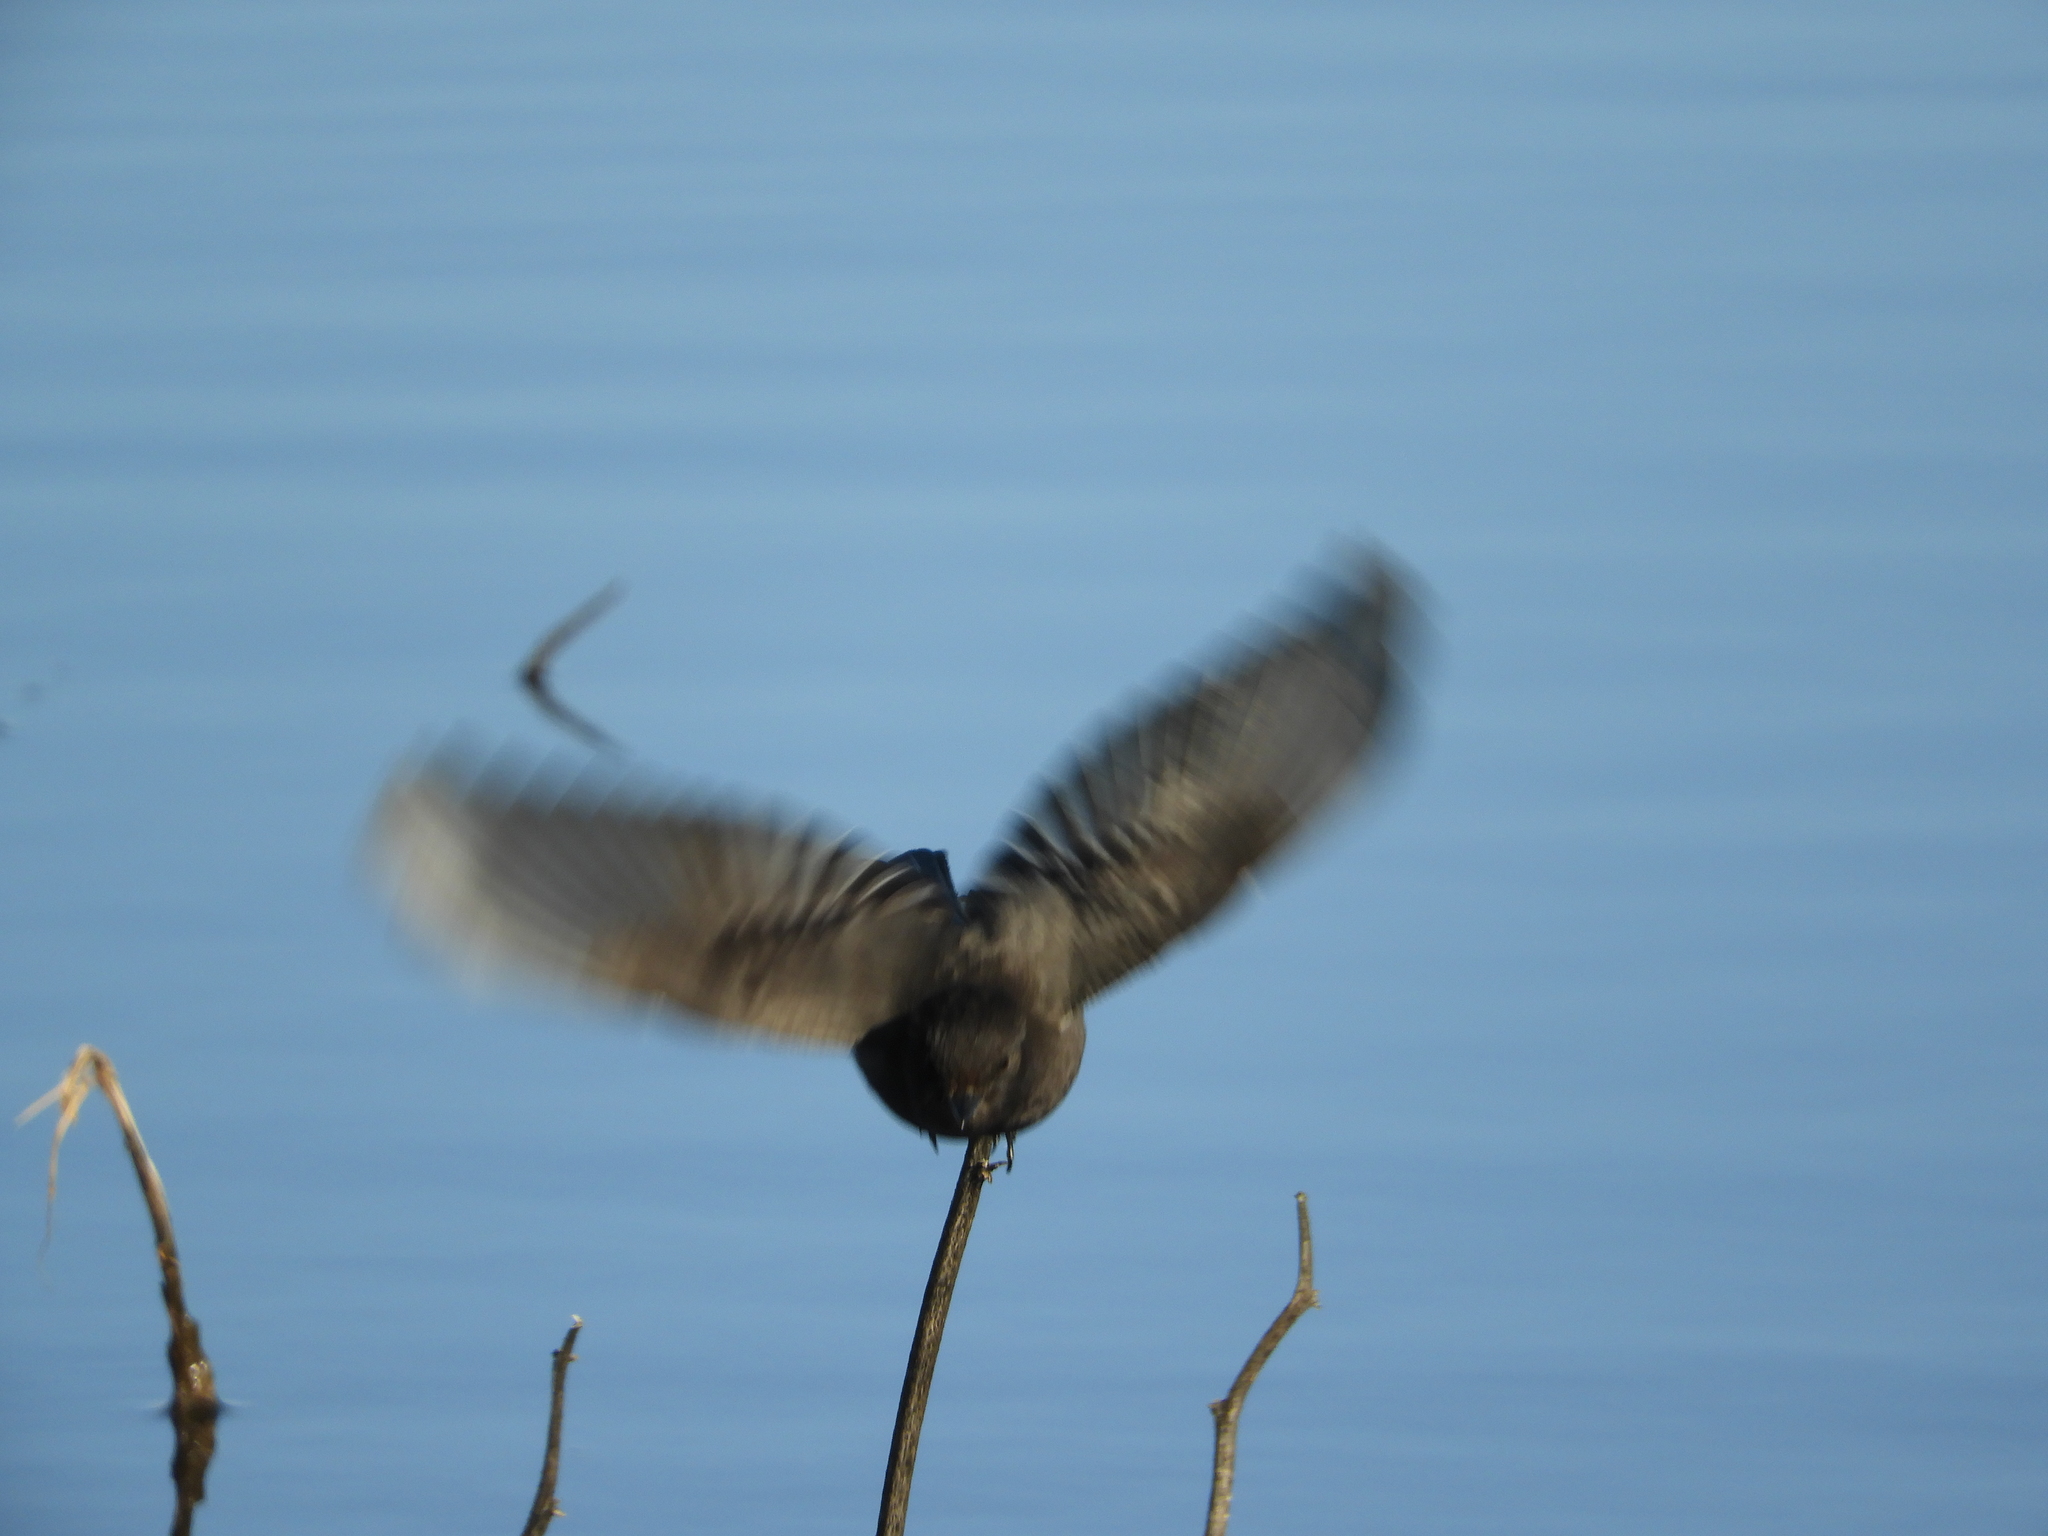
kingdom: Animalia
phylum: Chordata
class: Aves
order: Passeriformes
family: Tyrannidae
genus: Sayornis
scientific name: Sayornis nigricans
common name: Black phoebe
